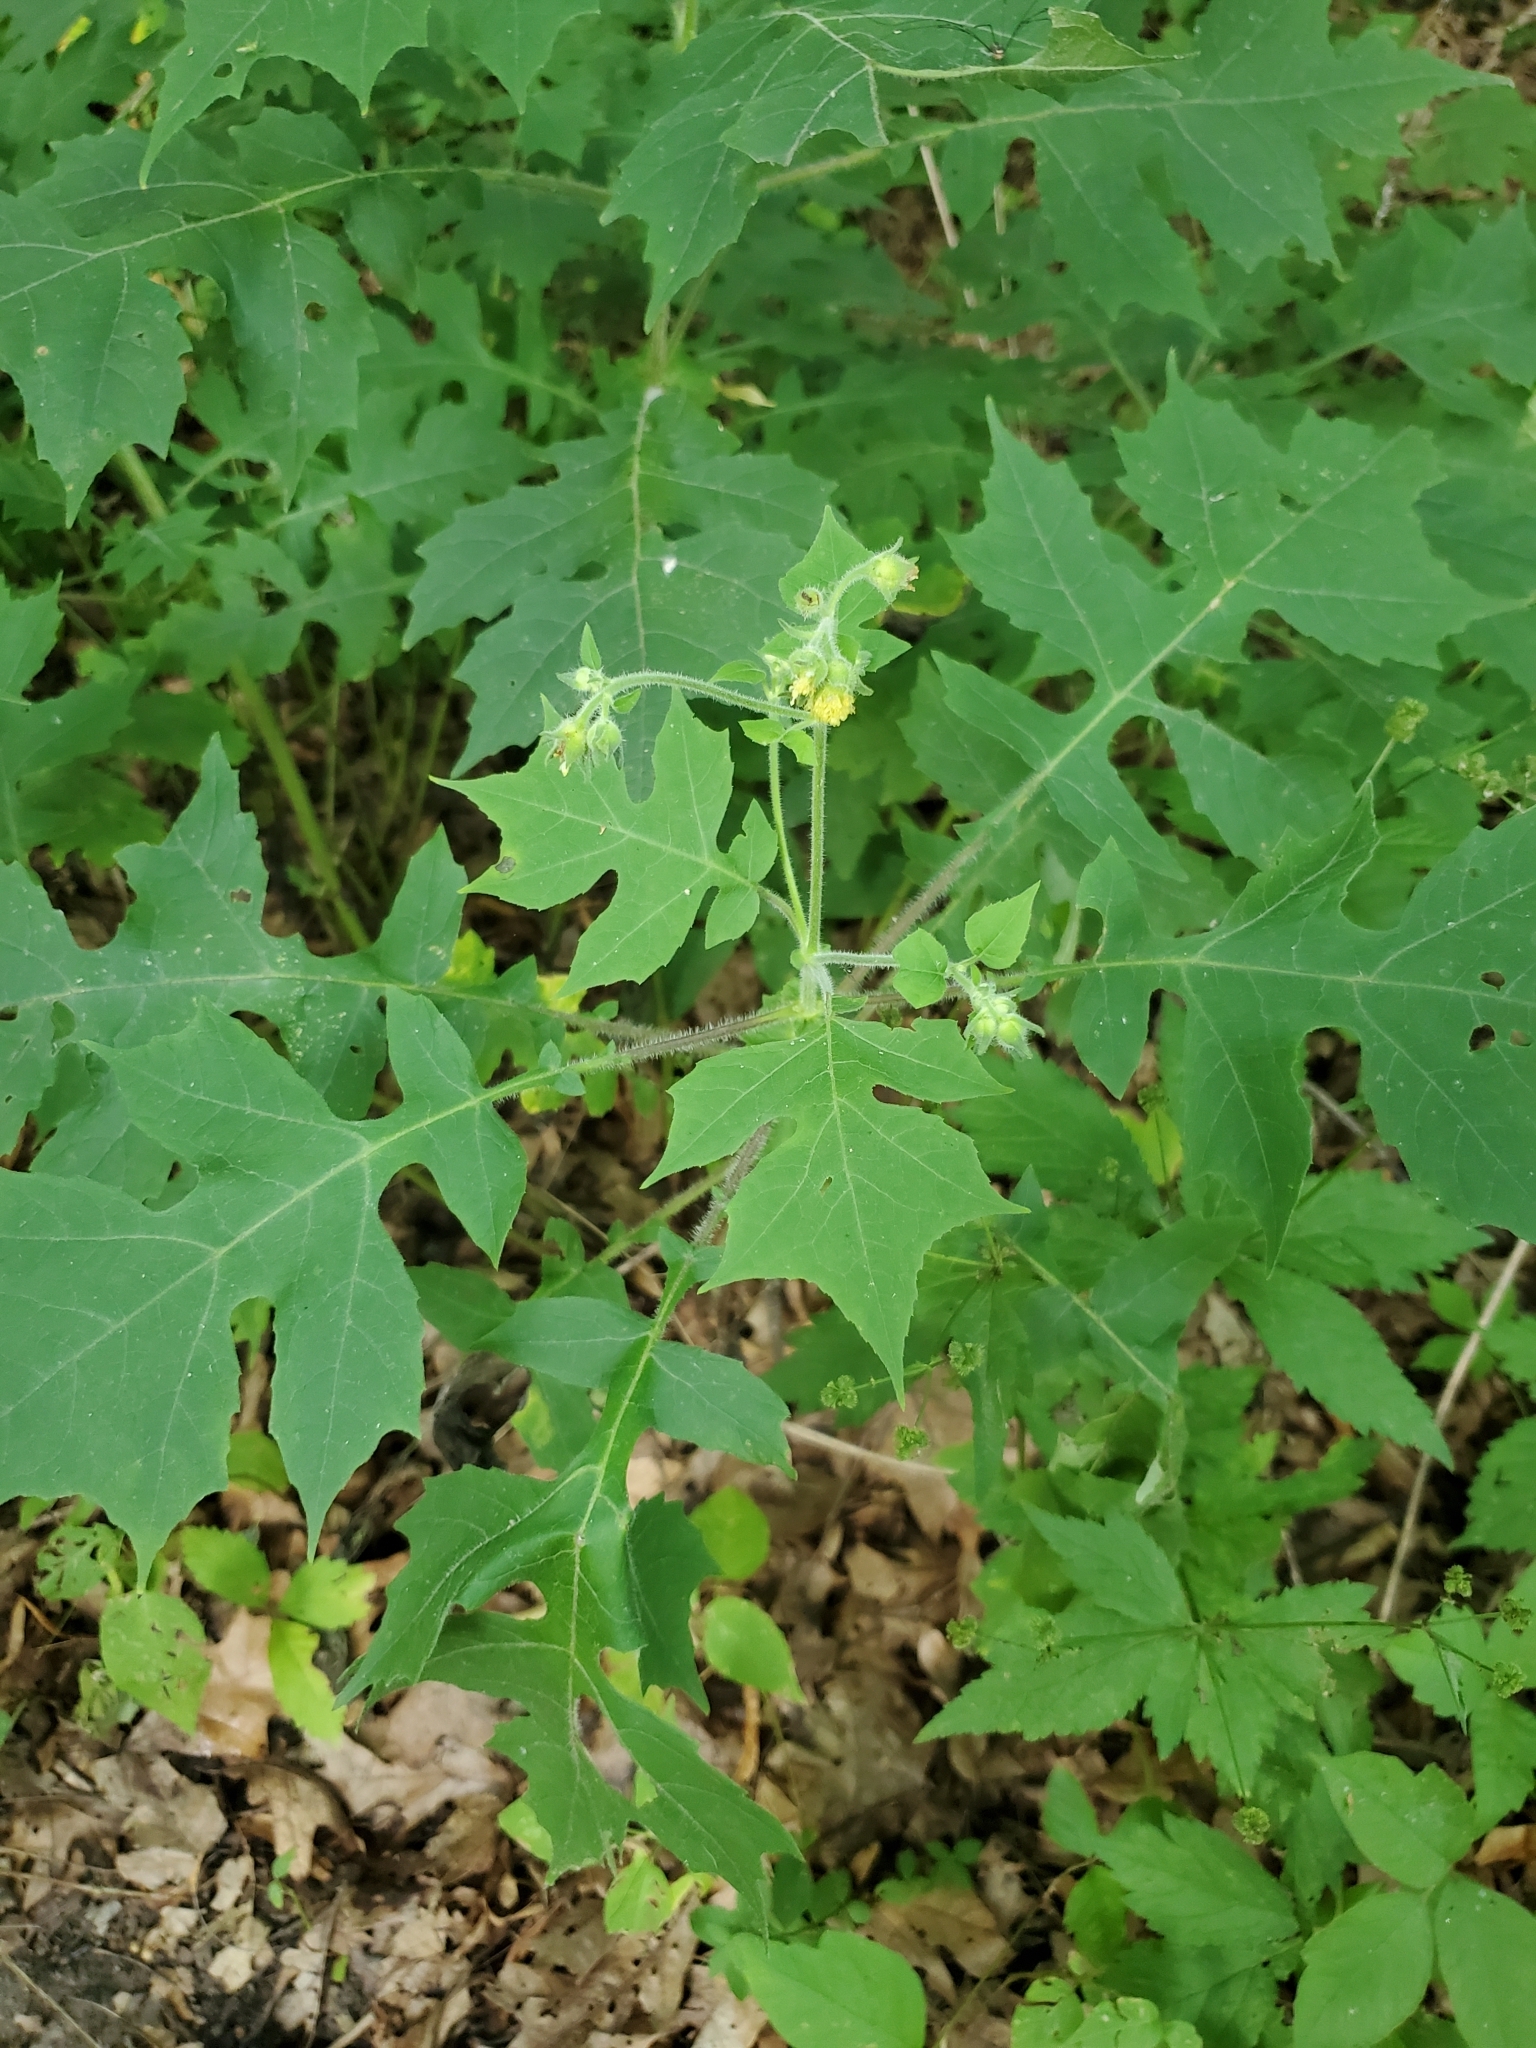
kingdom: Plantae
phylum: Tracheophyta
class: Magnoliopsida
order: Asterales
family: Asteraceae
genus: Polymnia
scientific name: Polymnia canadensis
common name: Pale-flowered leafcup
